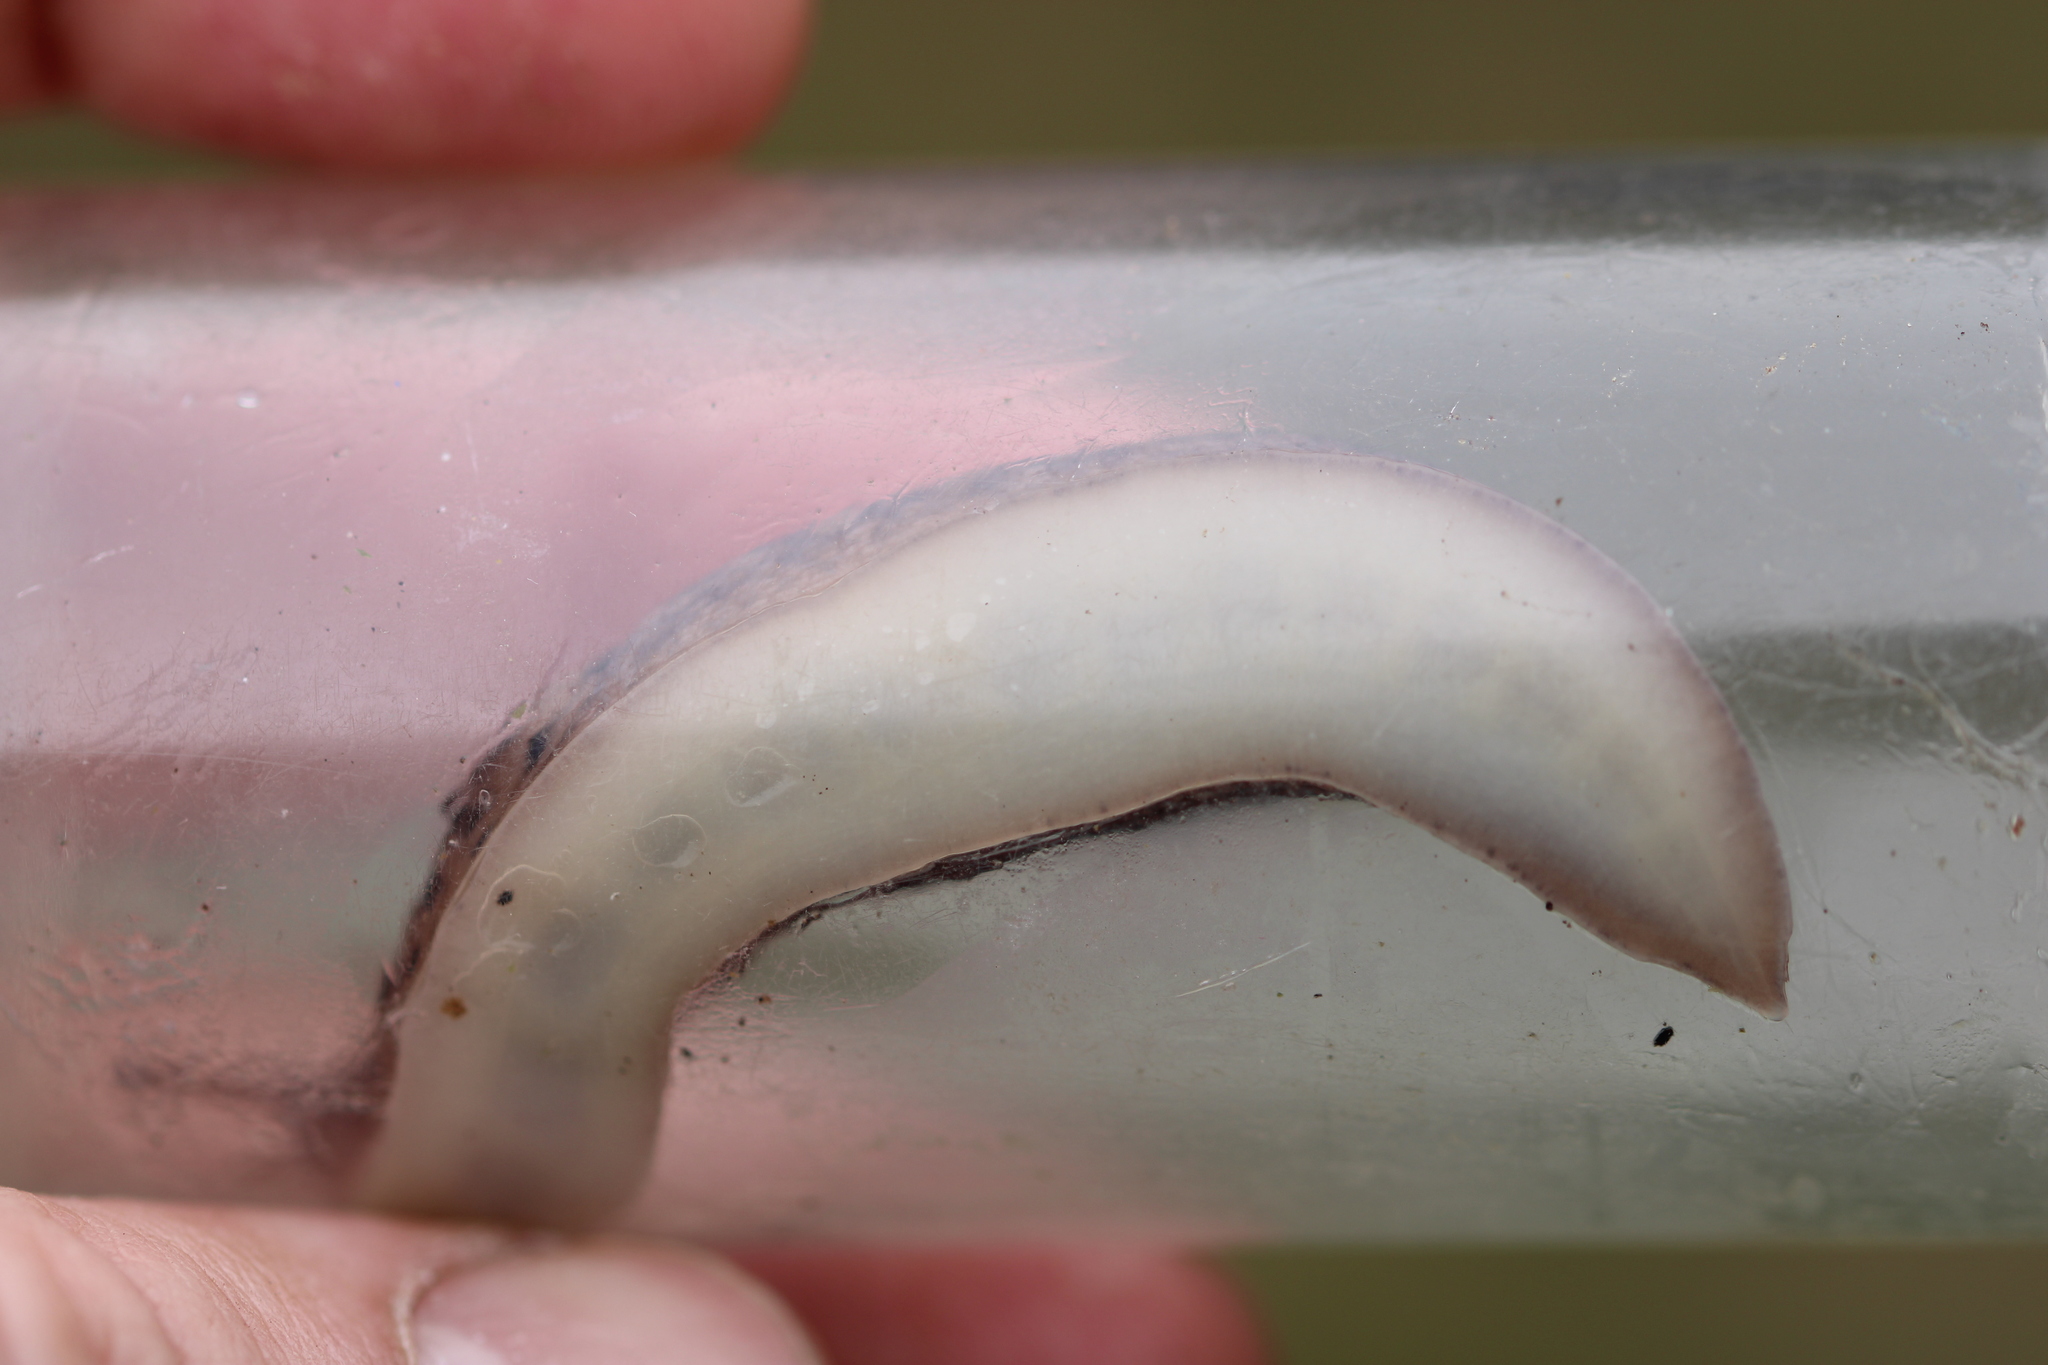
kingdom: Animalia
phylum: Mollusca
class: Gastropoda
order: Stylommatophora
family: Limacidae
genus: Limax
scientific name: Limax maximus
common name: Great grey slug
